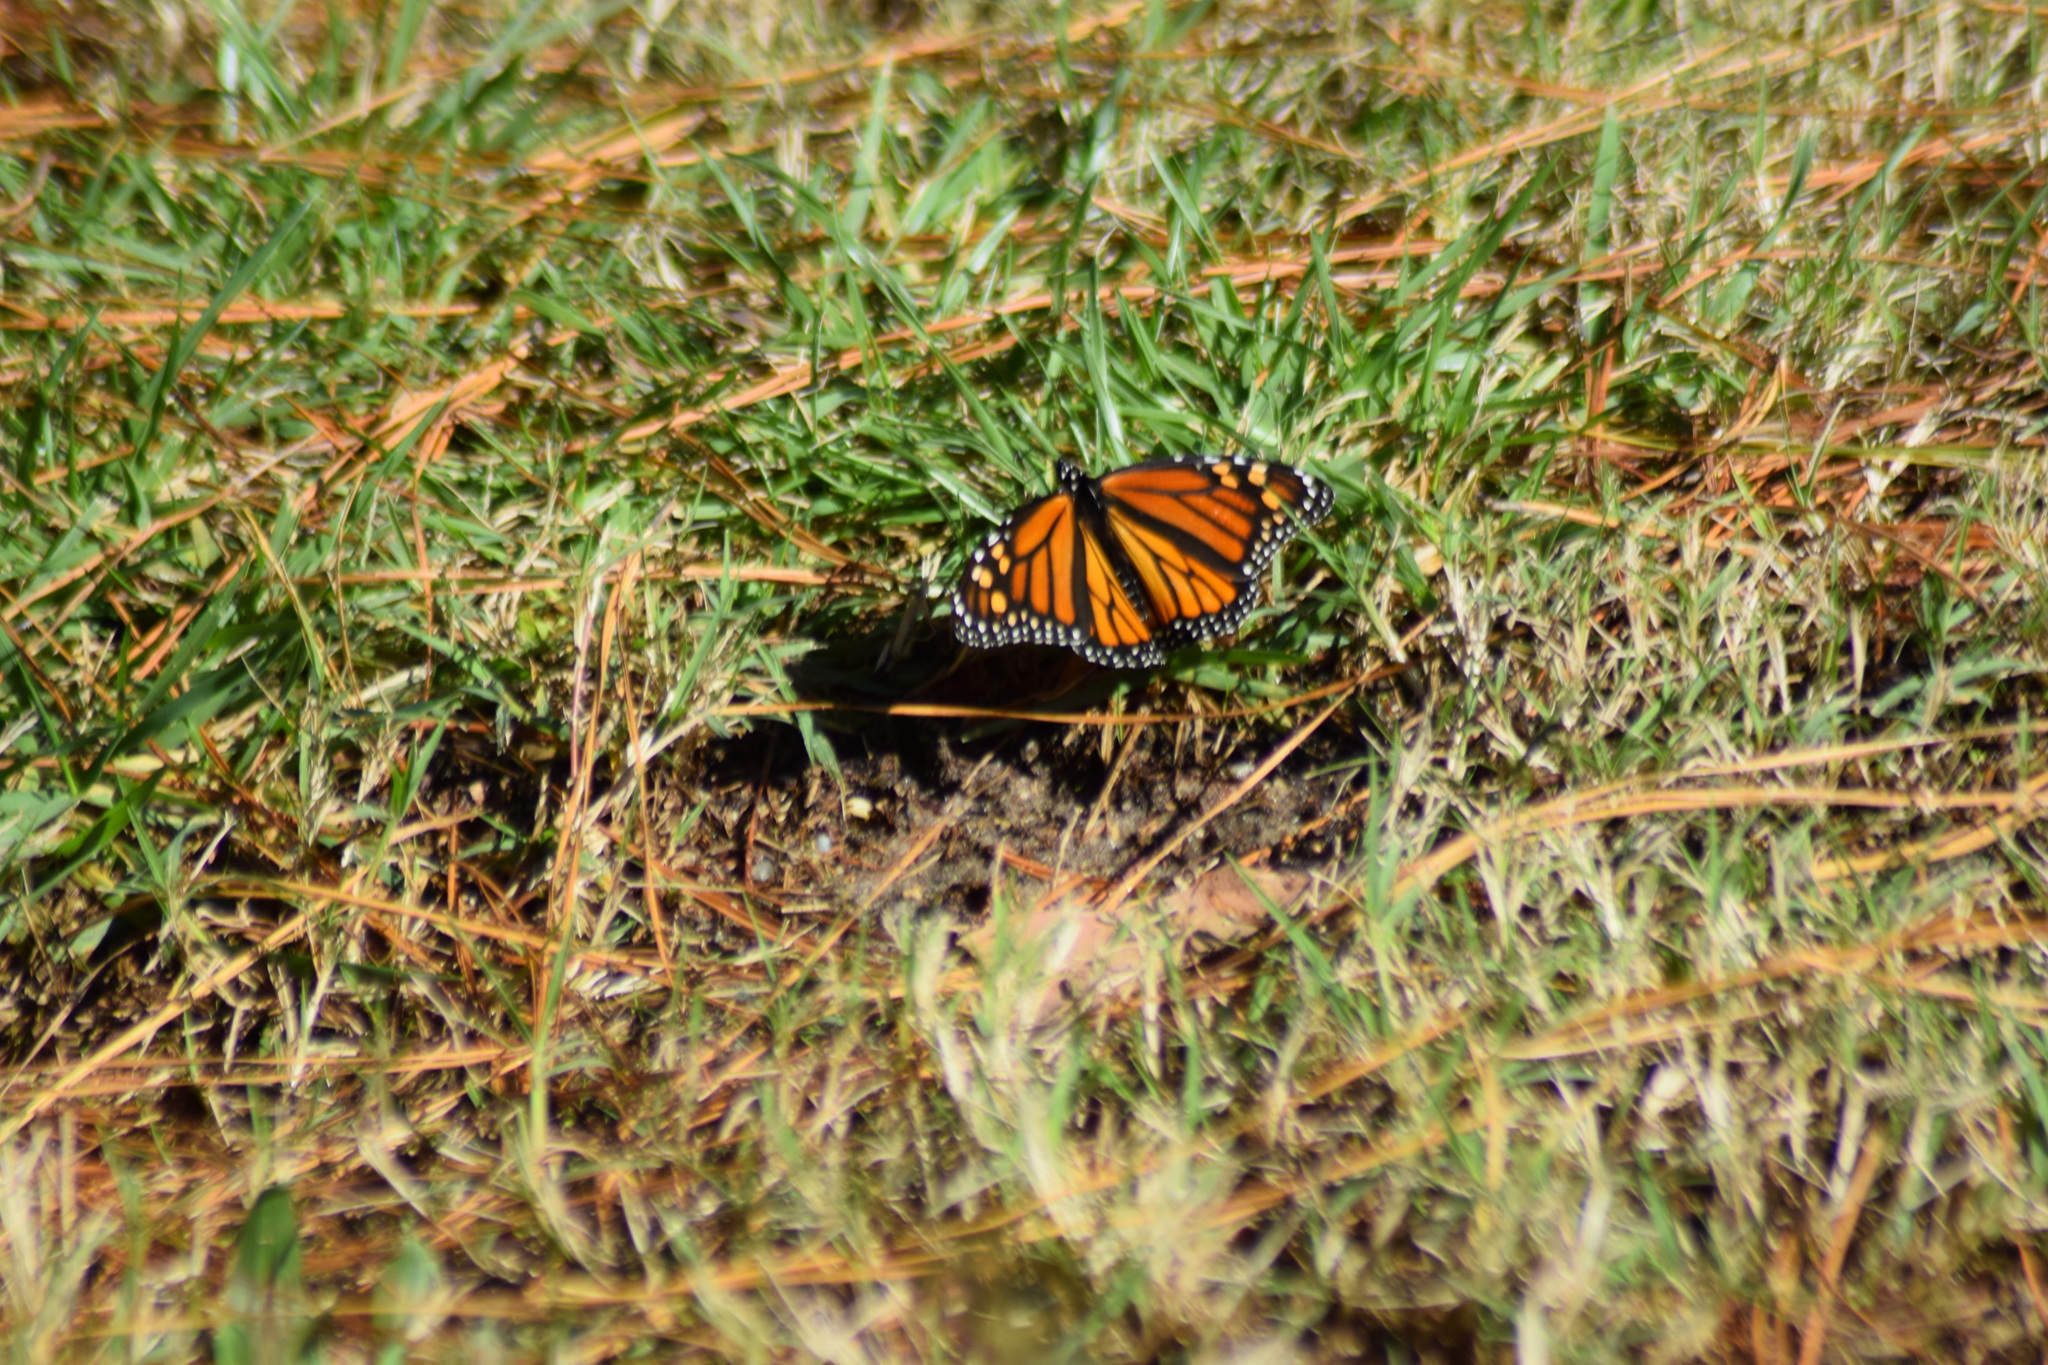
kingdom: Animalia
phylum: Arthropoda
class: Insecta
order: Lepidoptera
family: Nymphalidae
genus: Danaus
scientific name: Danaus plexippus
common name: Monarch
